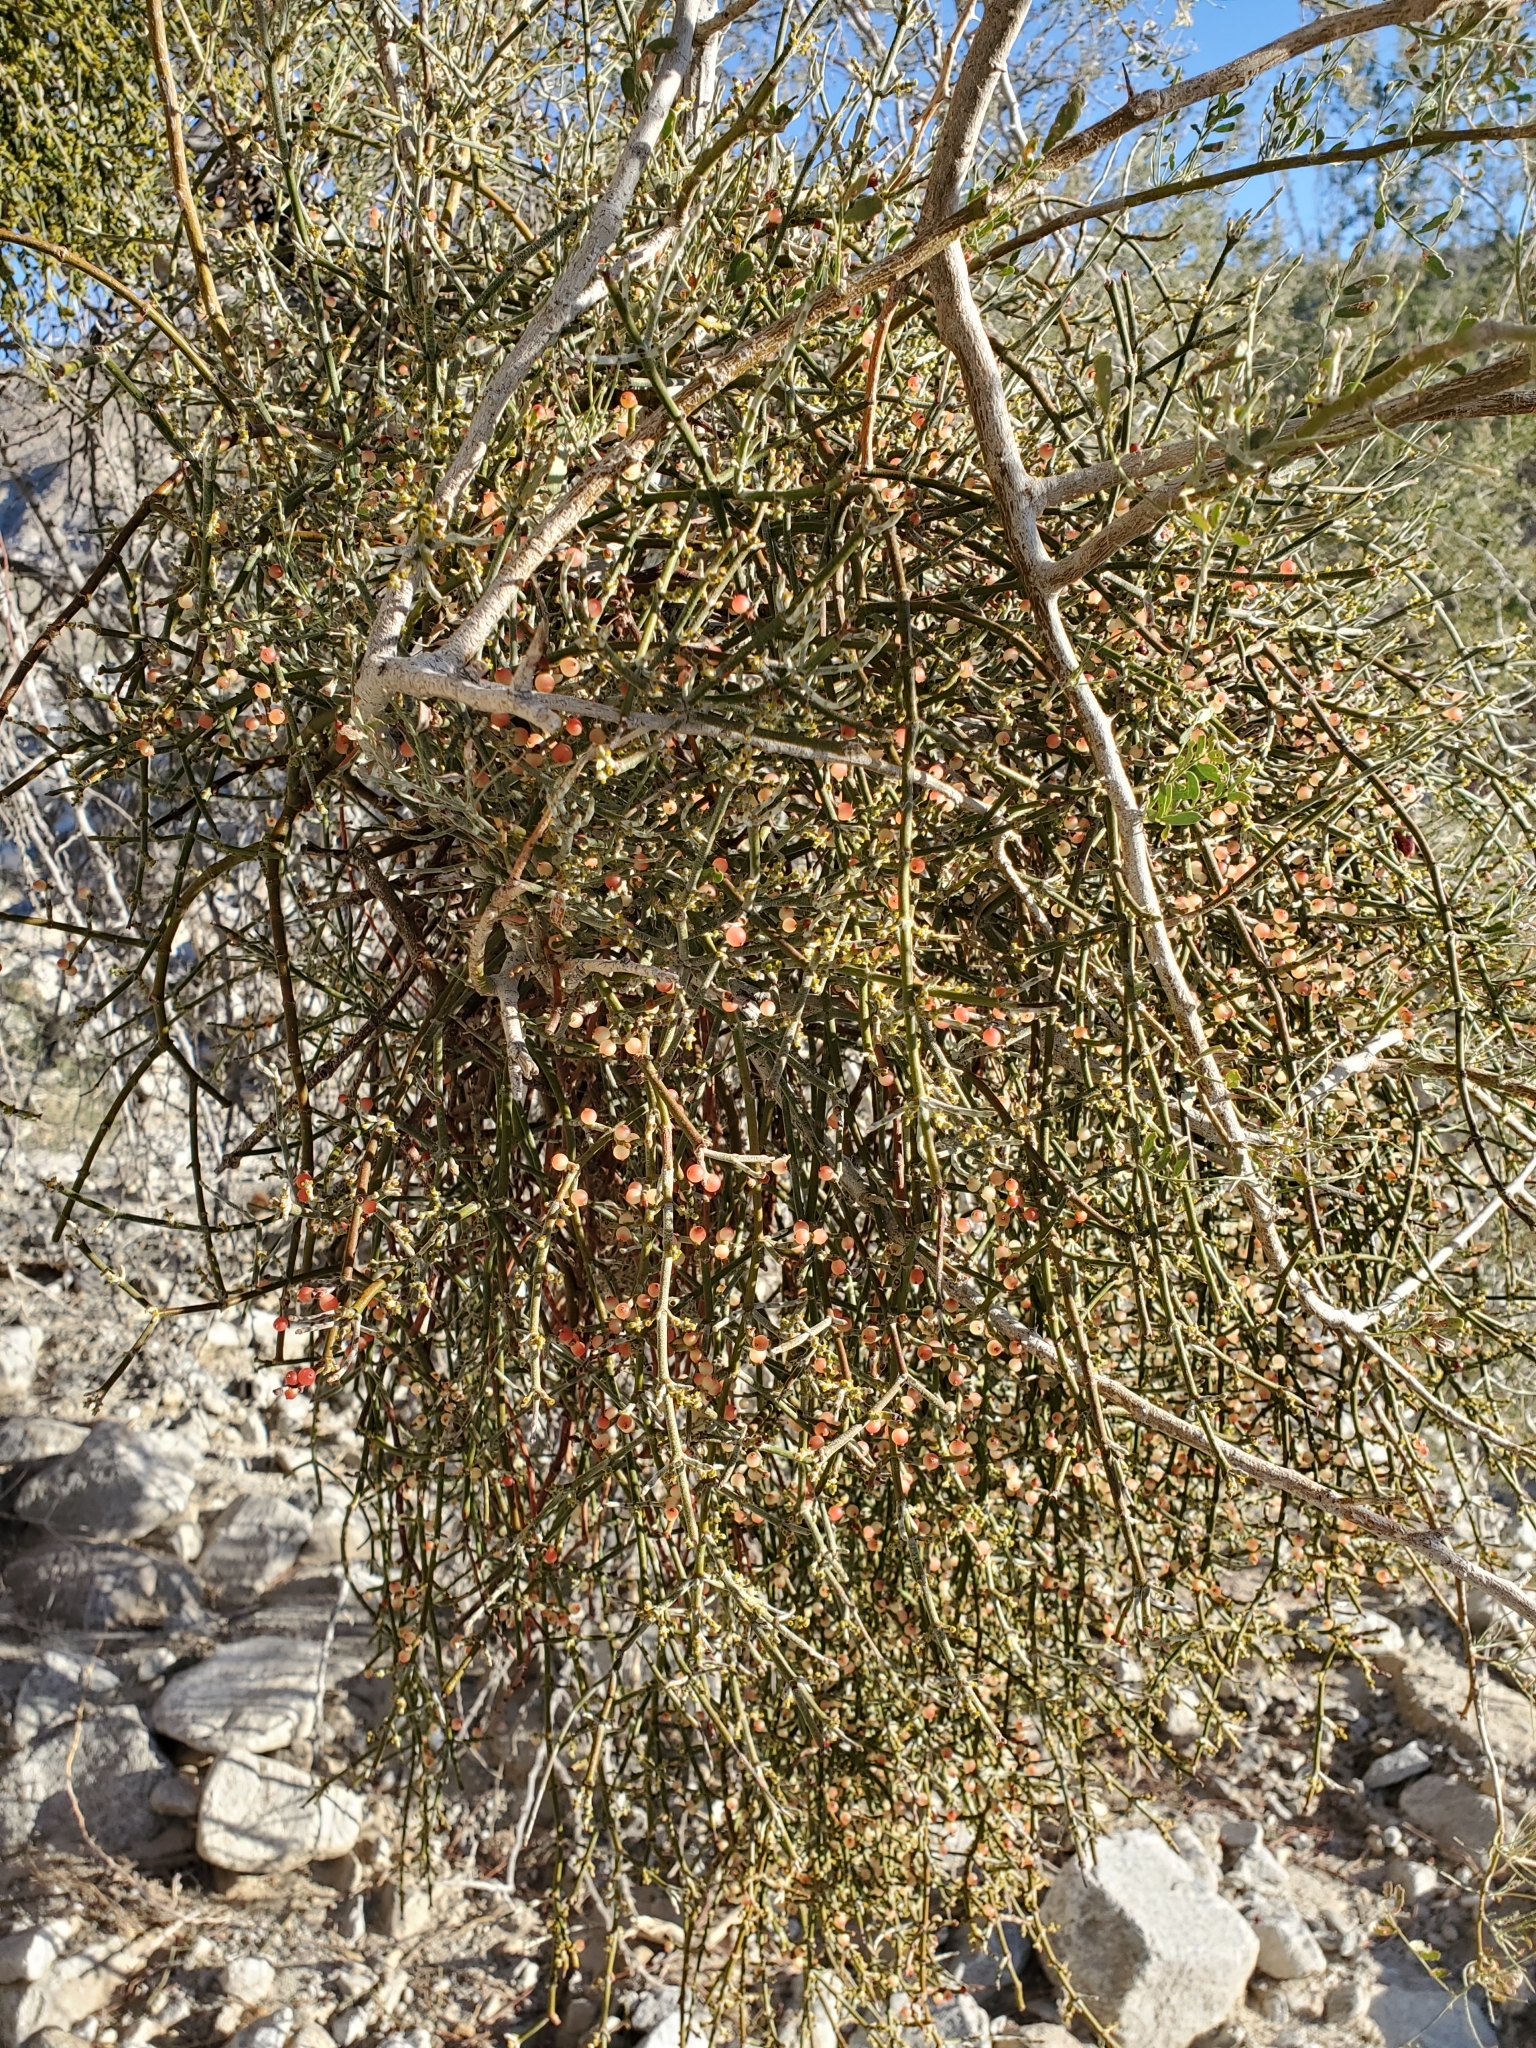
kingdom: Plantae
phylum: Tracheophyta
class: Magnoliopsida
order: Santalales
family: Viscaceae
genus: Phoradendron
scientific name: Phoradendron californicum
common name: Acacia mistletoe
